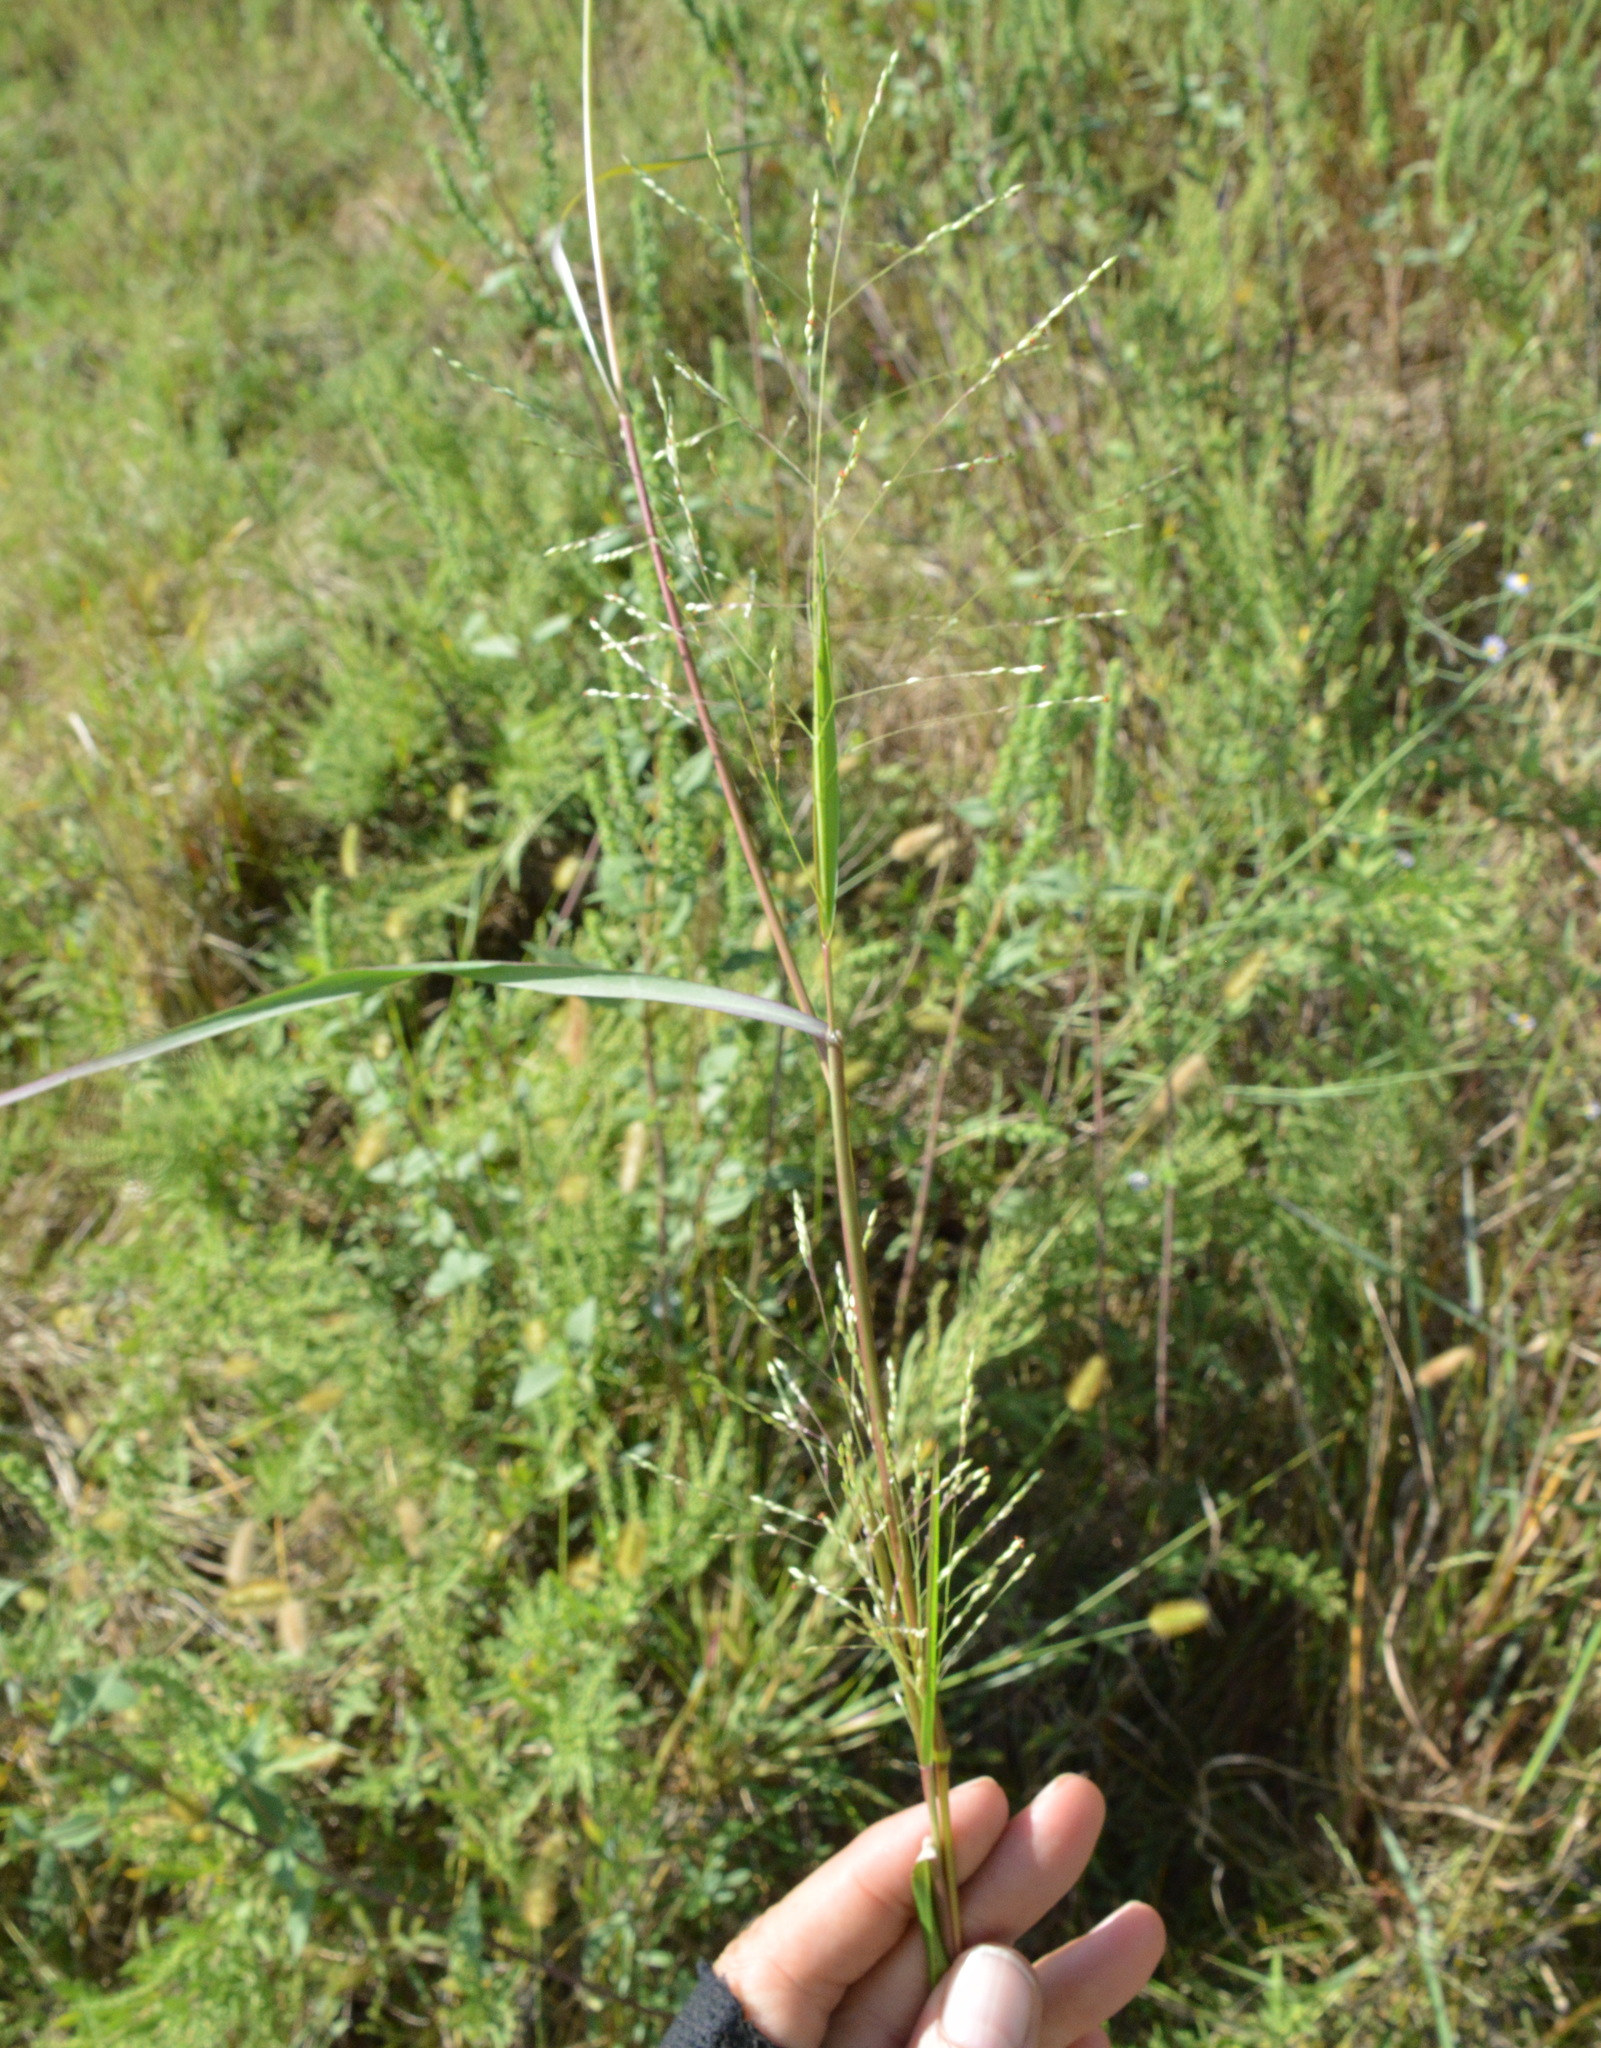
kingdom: Plantae
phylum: Tracheophyta
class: Liliopsida
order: Poales
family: Poaceae
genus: Panicum
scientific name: Panicum dichotomiflorum
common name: Autumn millet
